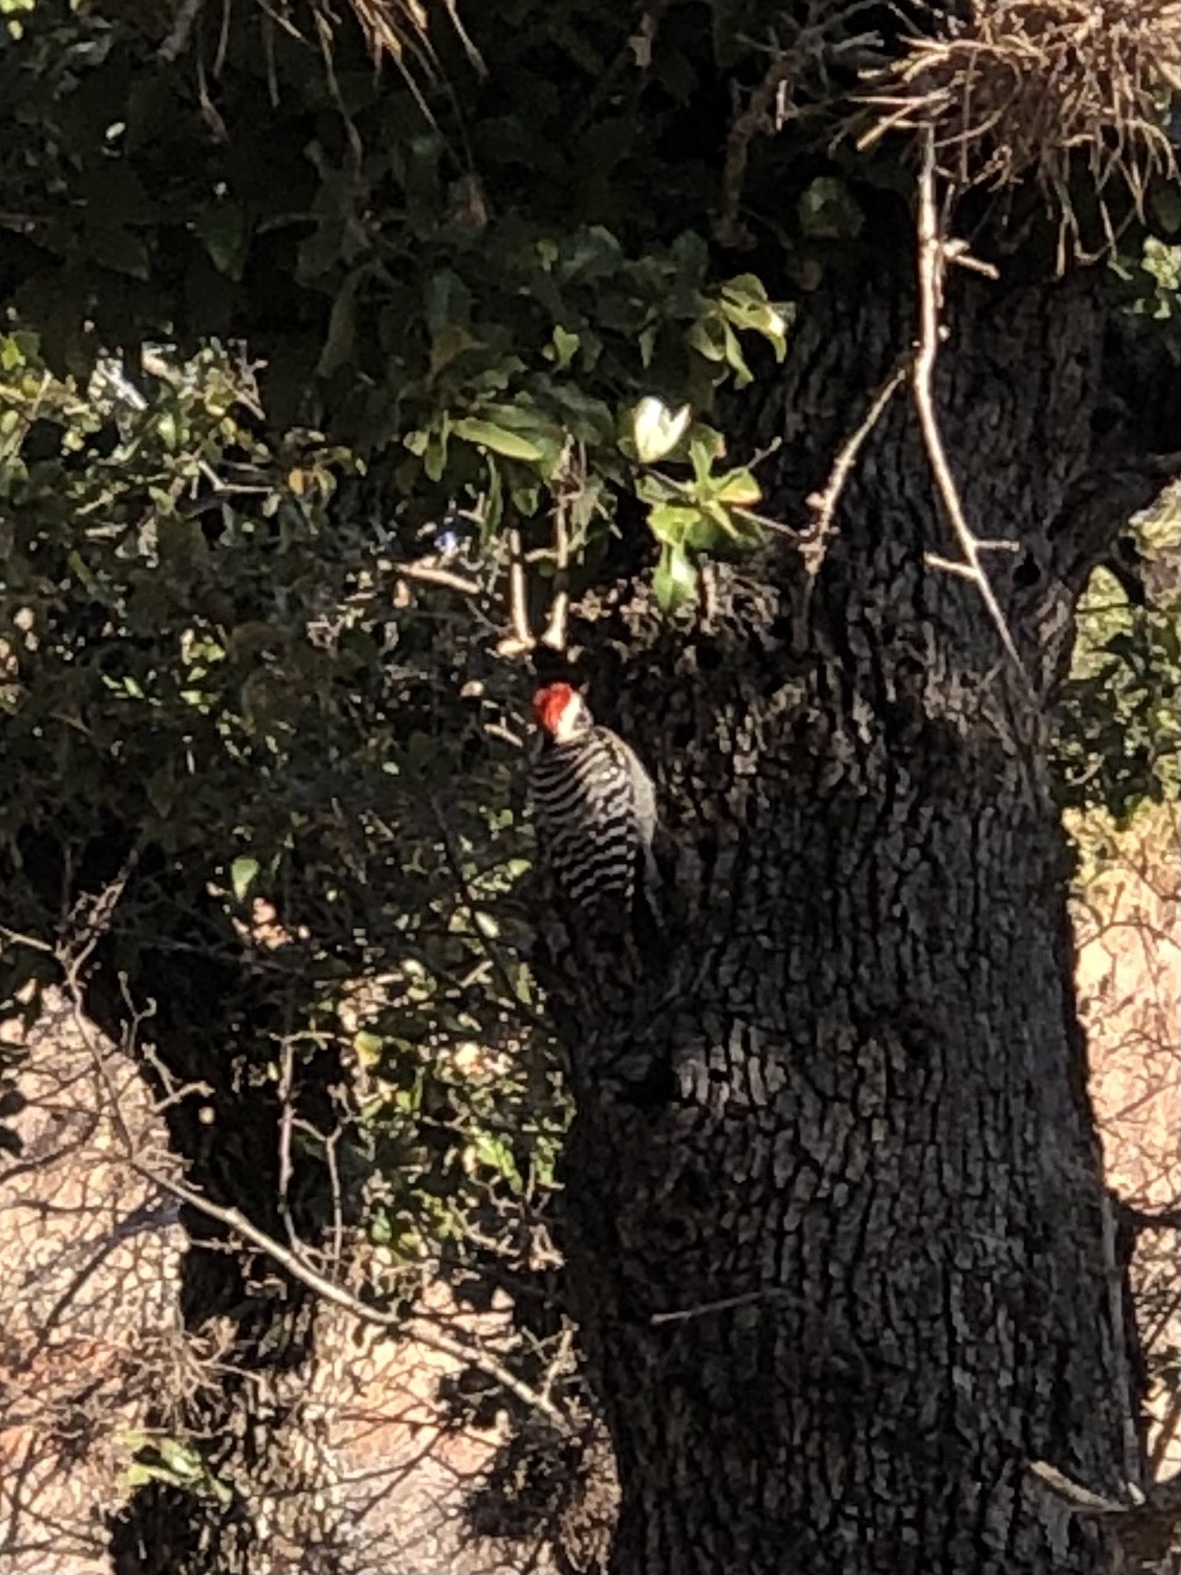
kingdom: Animalia
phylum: Chordata
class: Aves
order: Piciformes
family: Picidae
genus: Dryobates
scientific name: Dryobates scalaris
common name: Ladder-backed woodpecker
